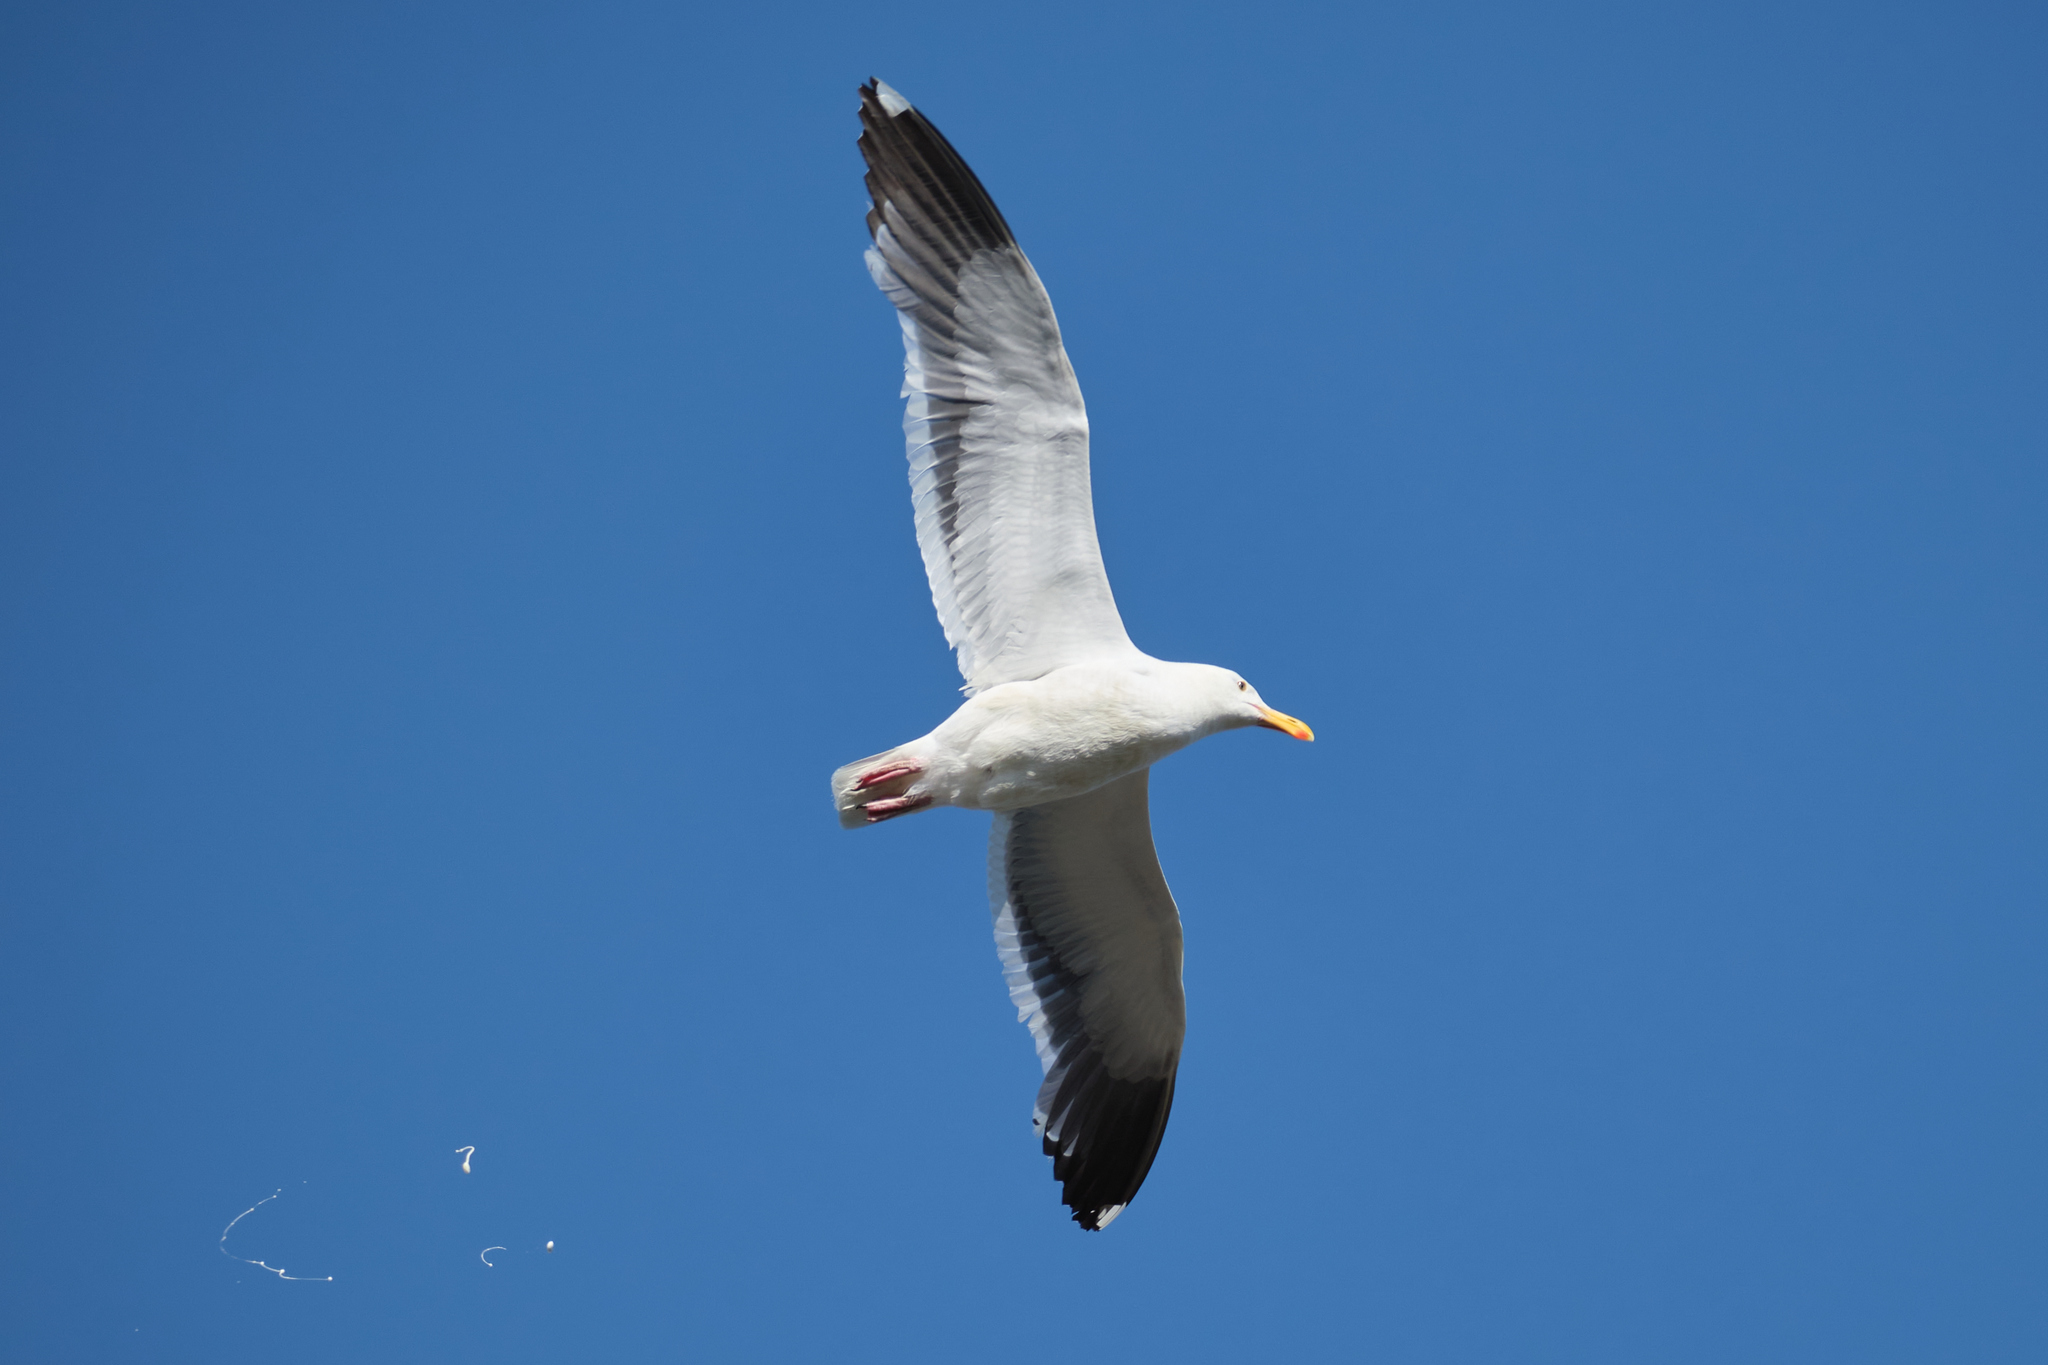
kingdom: Animalia
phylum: Chordata
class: Aves
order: Charadriiformes
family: Laridae
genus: Larus
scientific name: Larus occidentalis
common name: Western gull
